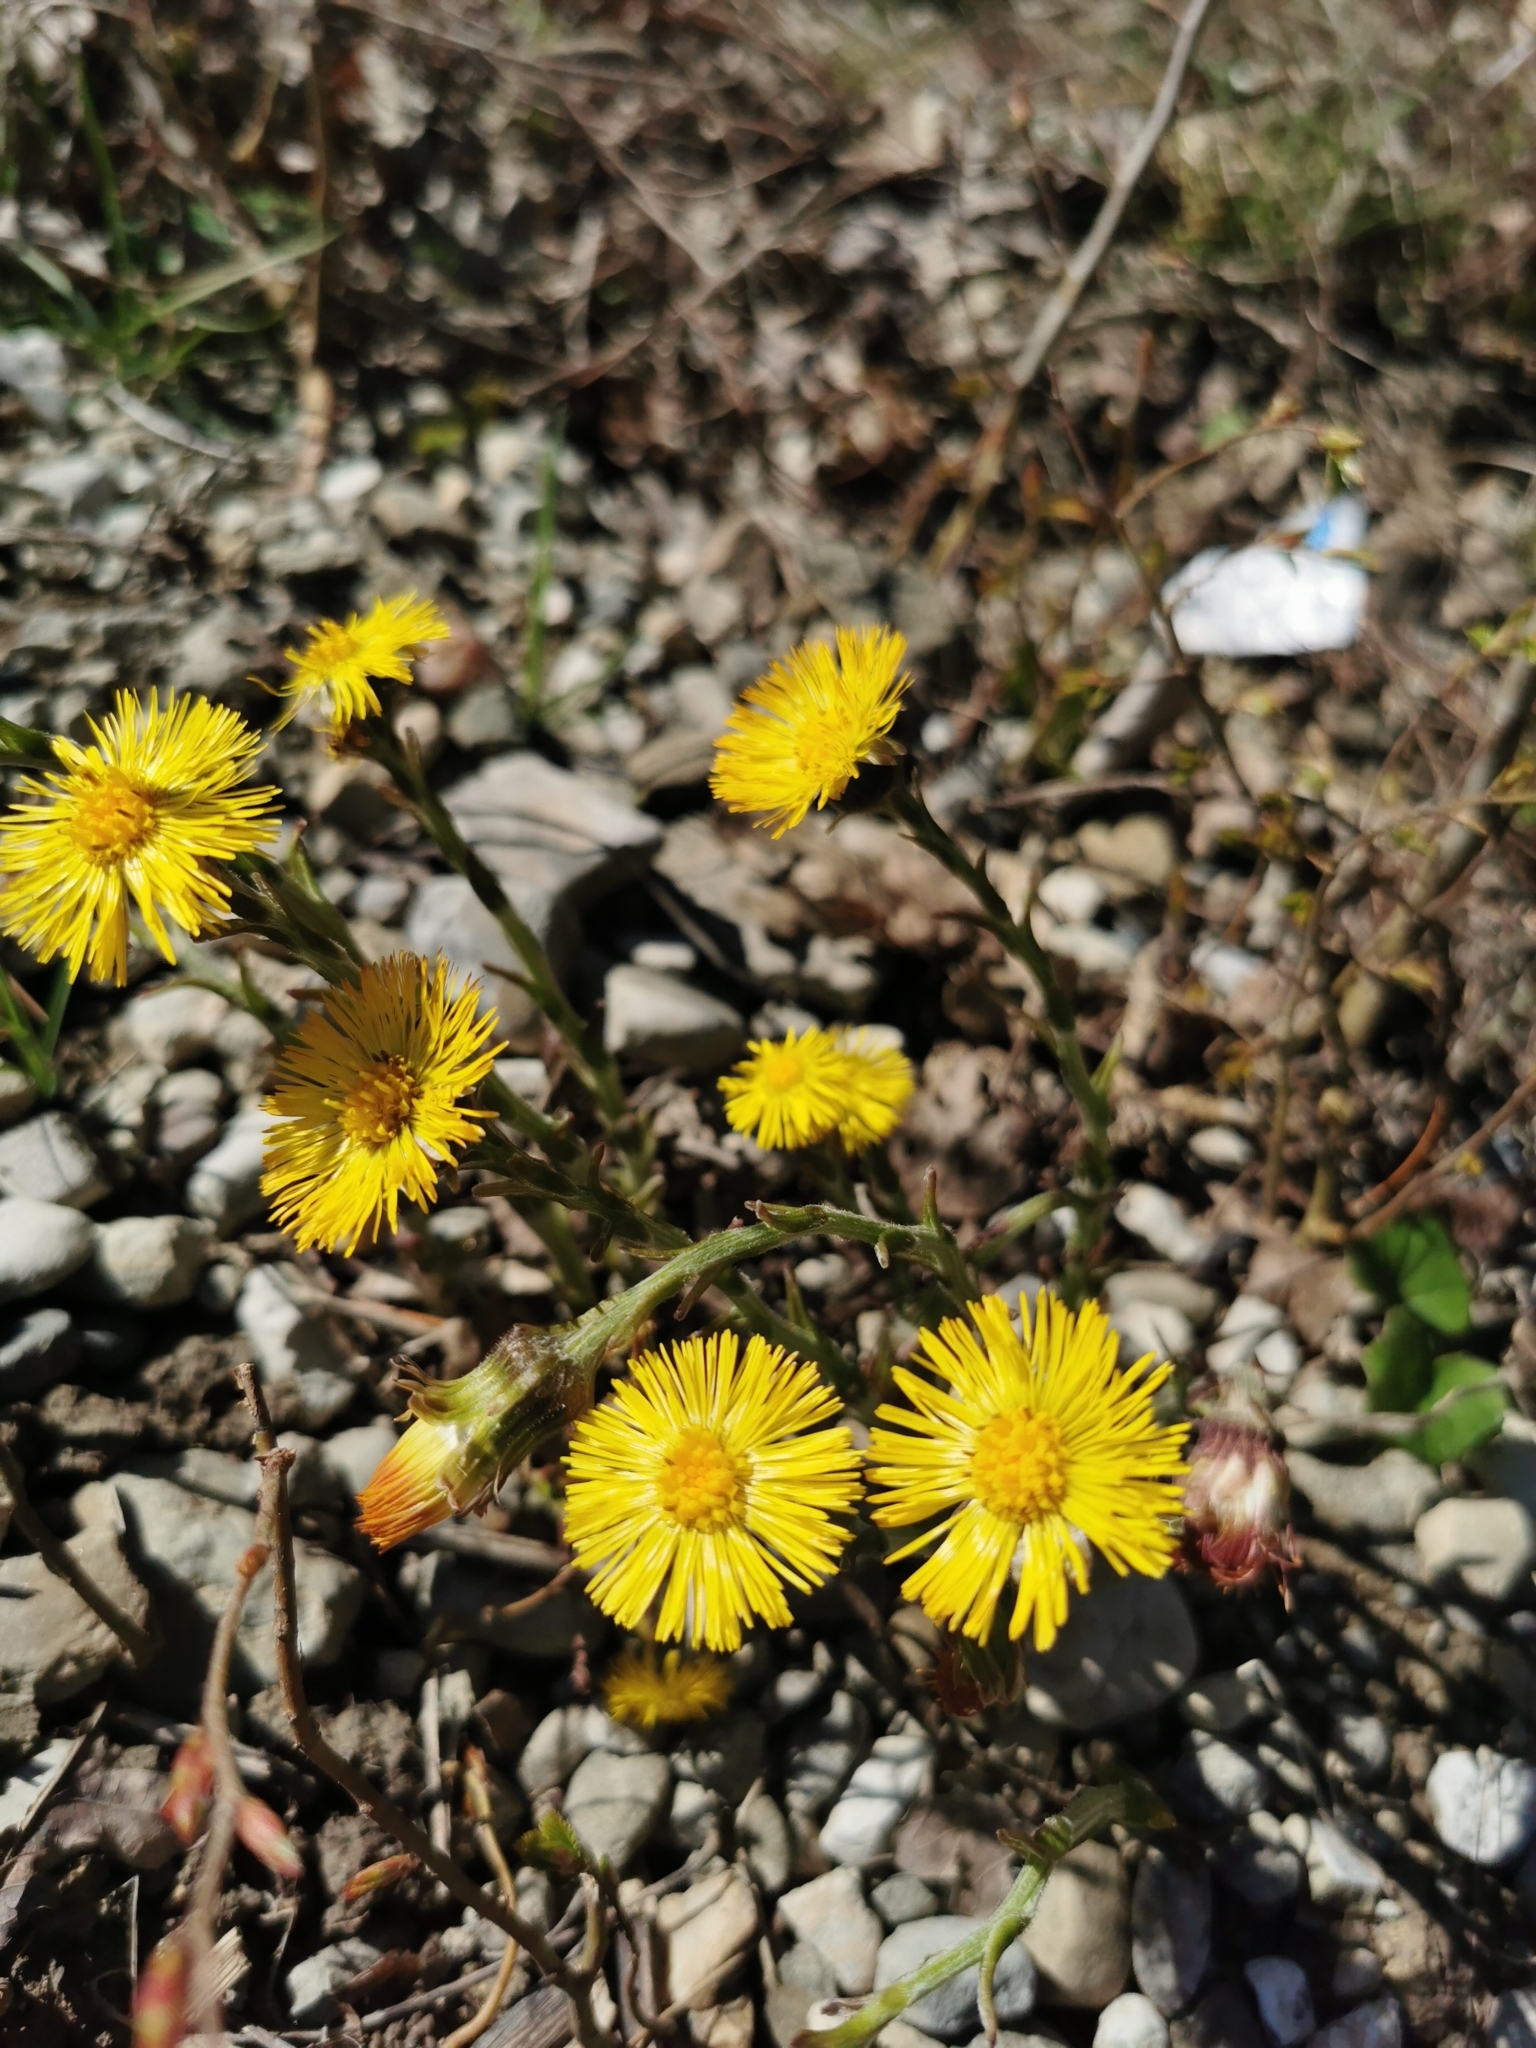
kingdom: Plantae
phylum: Tracheophyta
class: Magnoliopsida
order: Asterales
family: Asteraceae
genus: Tussilago
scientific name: Tussilago farfara
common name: Coltsfoot
